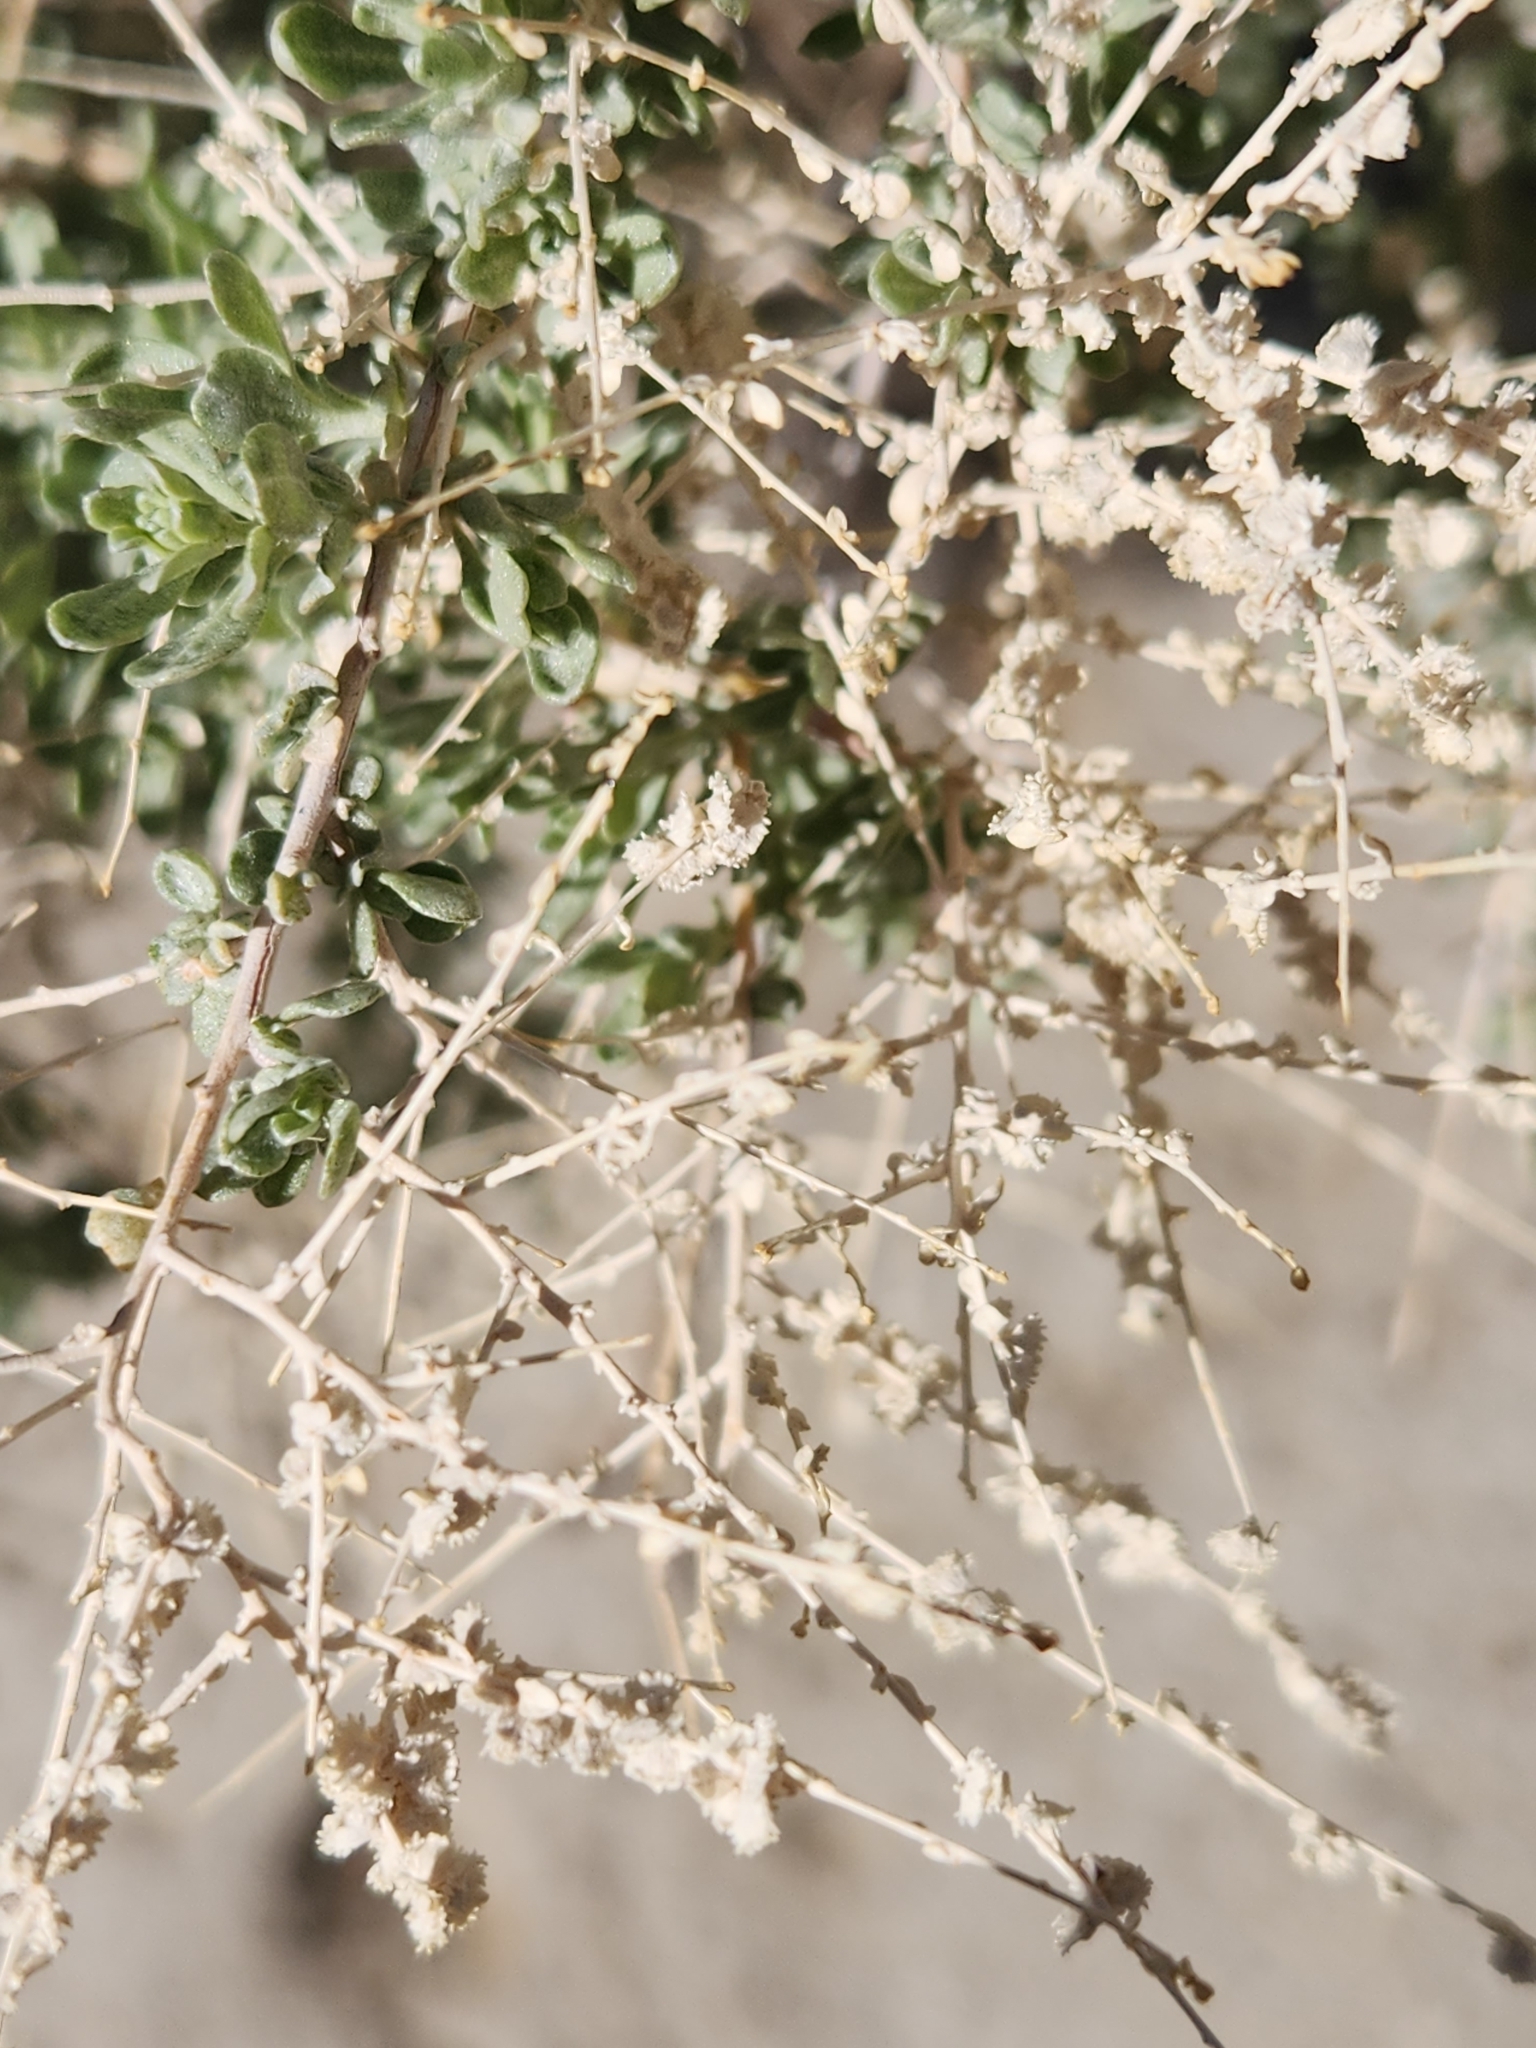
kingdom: Plantae
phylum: Tracheophyta
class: Magnoliopsida
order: Caryophyllales
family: Amaranthaceae
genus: Atriplex
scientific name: Atriplex polycarpa
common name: Desert saltbush
